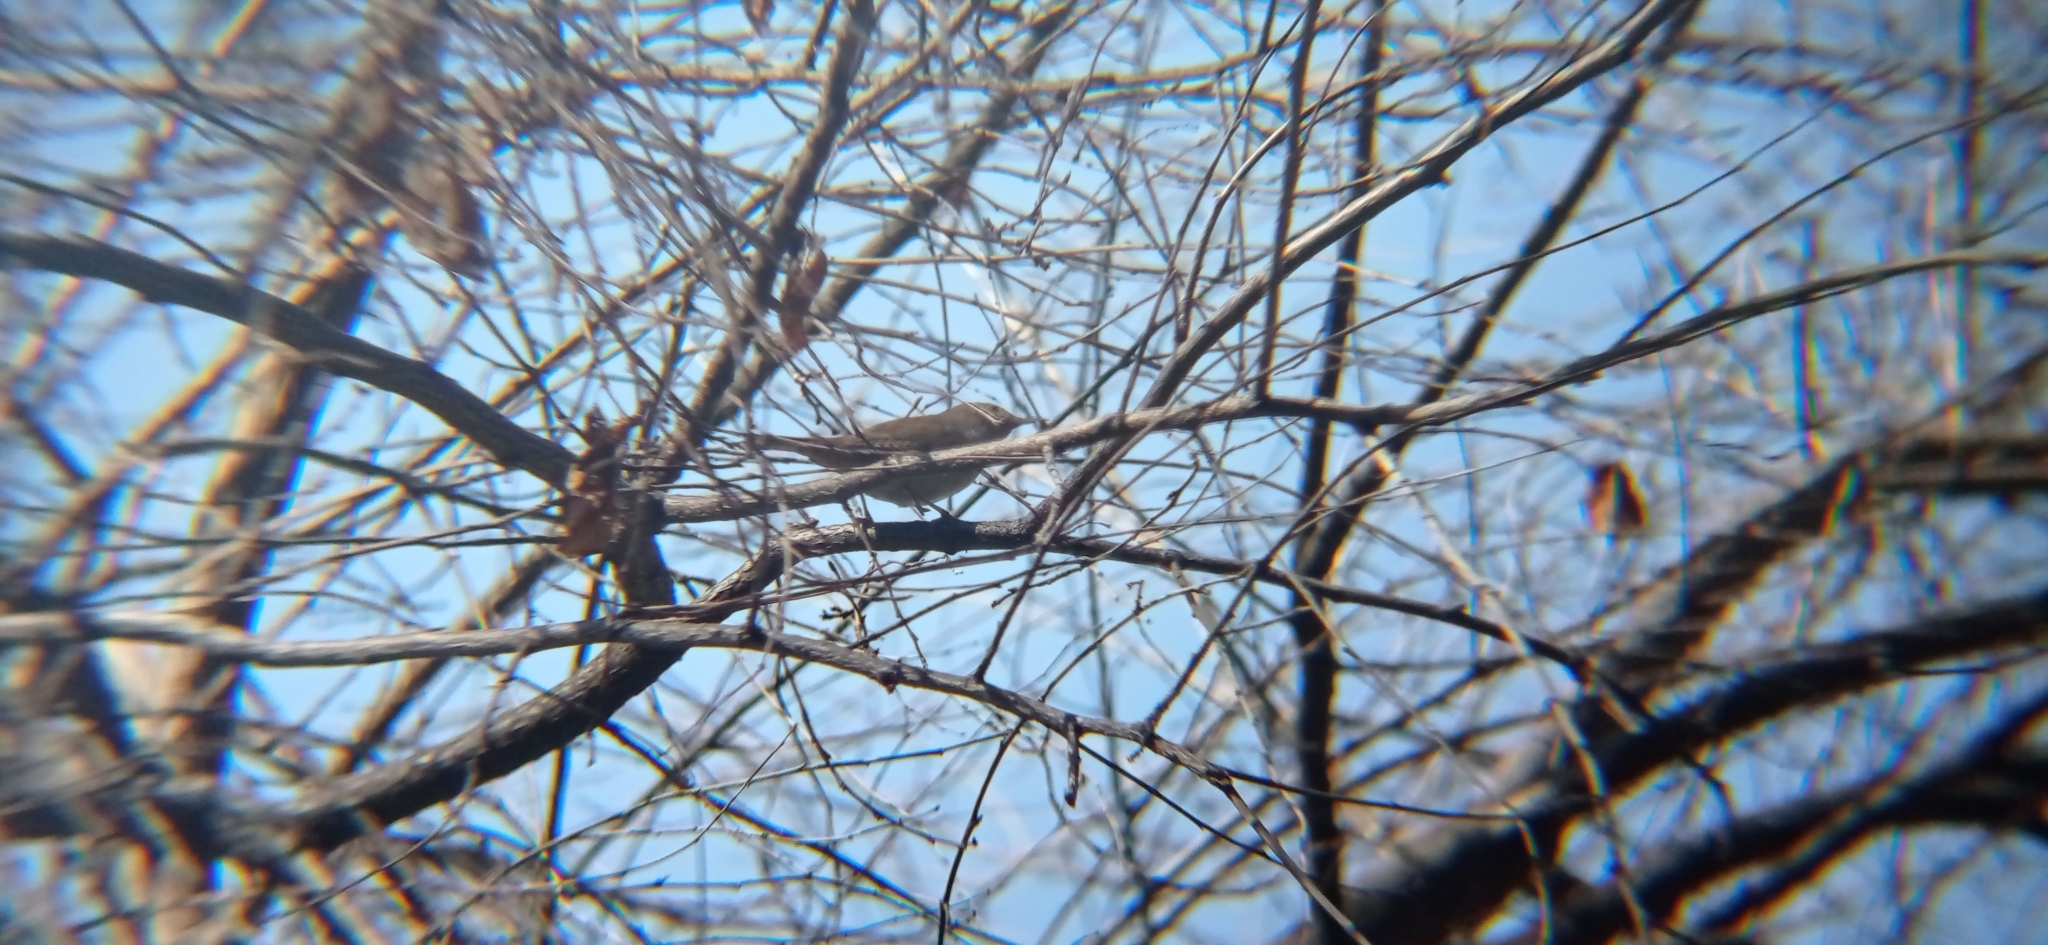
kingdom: Animalia
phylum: Chordata
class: Aves
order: Passeriformes
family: Troglodytidae
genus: Troglodytes
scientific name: Troglodytes aedon
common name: House wren
